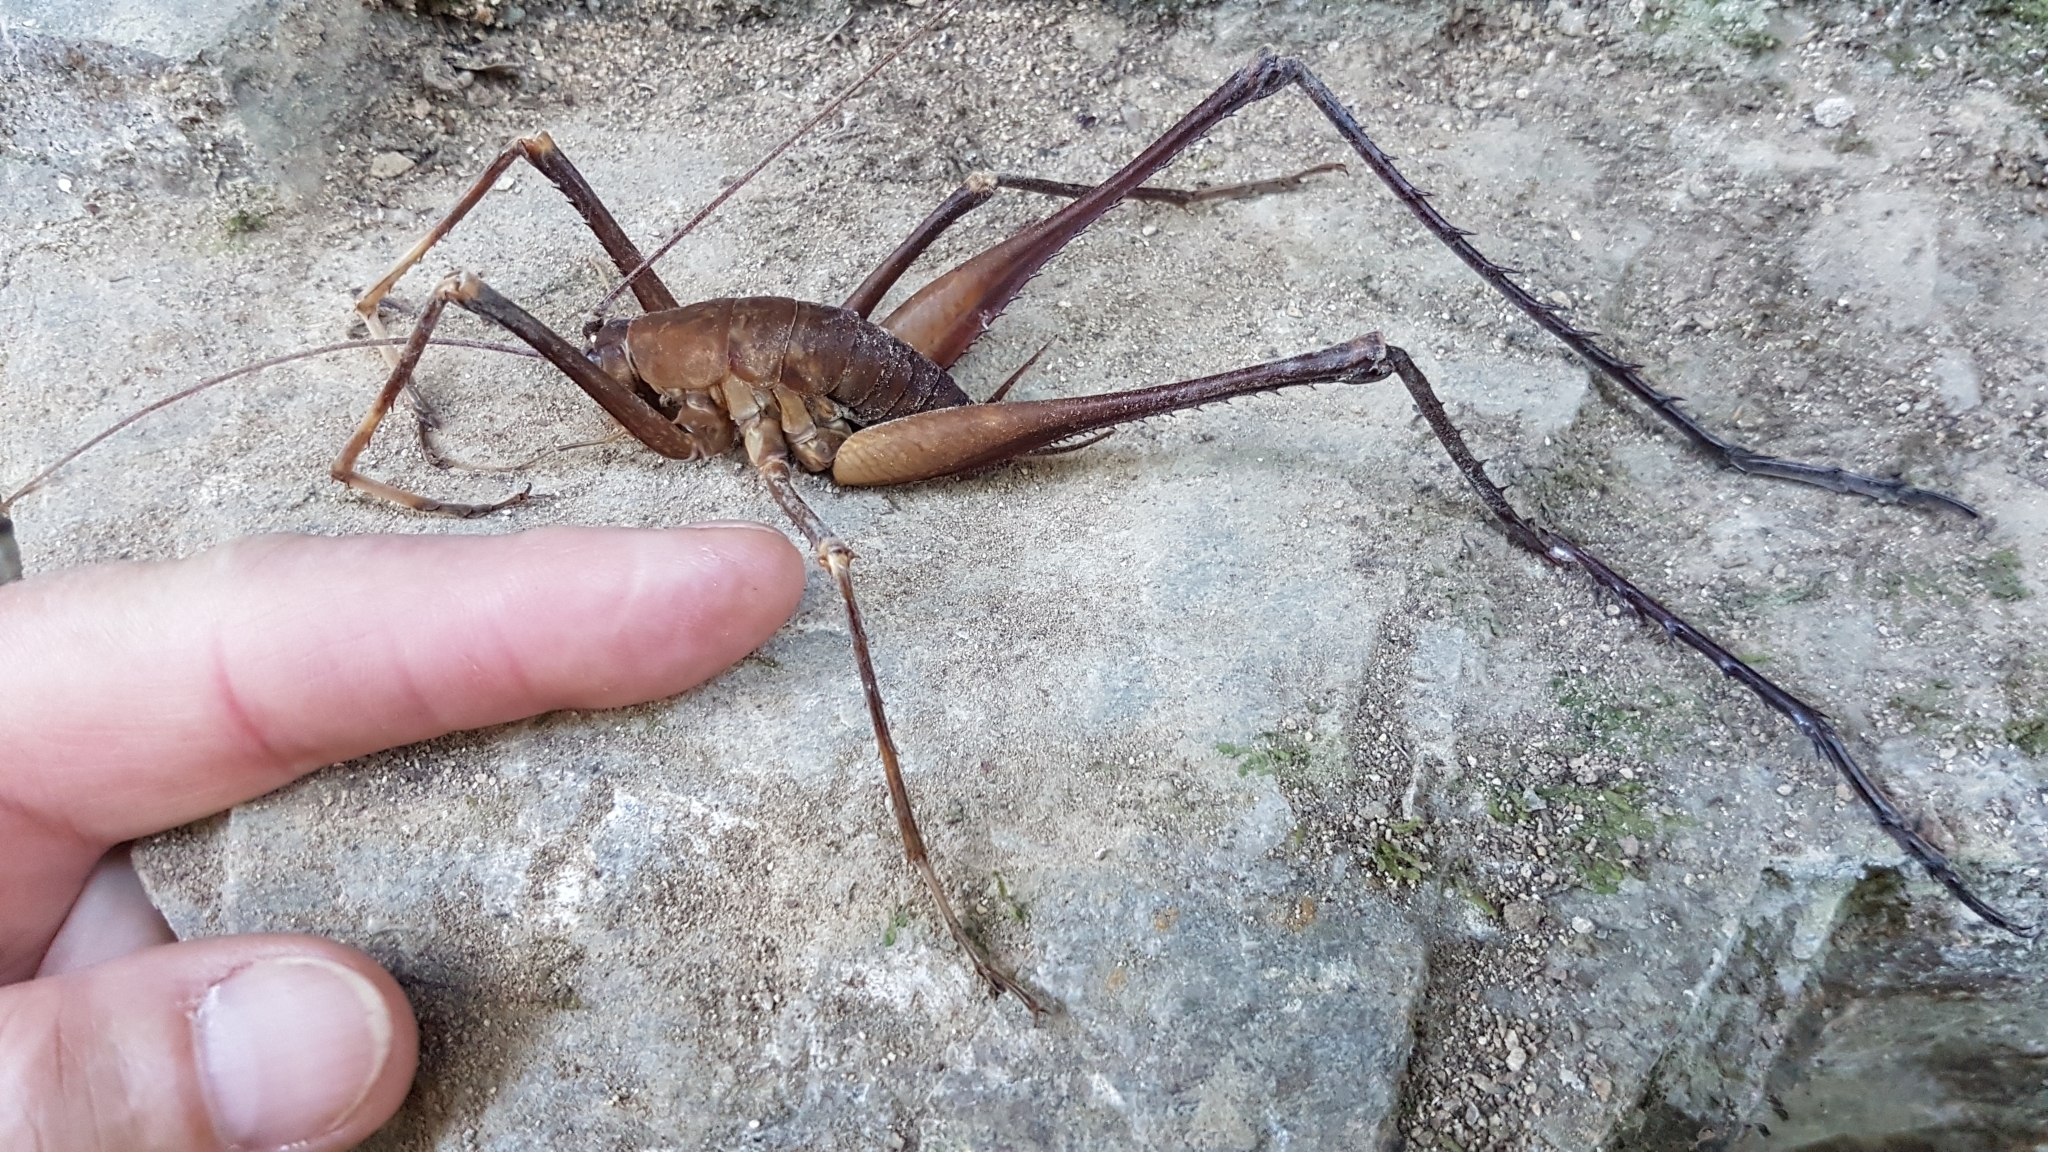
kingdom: Animalia
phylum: Arthropoda
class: Insecta
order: Orthoptera
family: Rhaphidophoridae
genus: Pachyrhamma
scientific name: Pachyrhamma longipes
